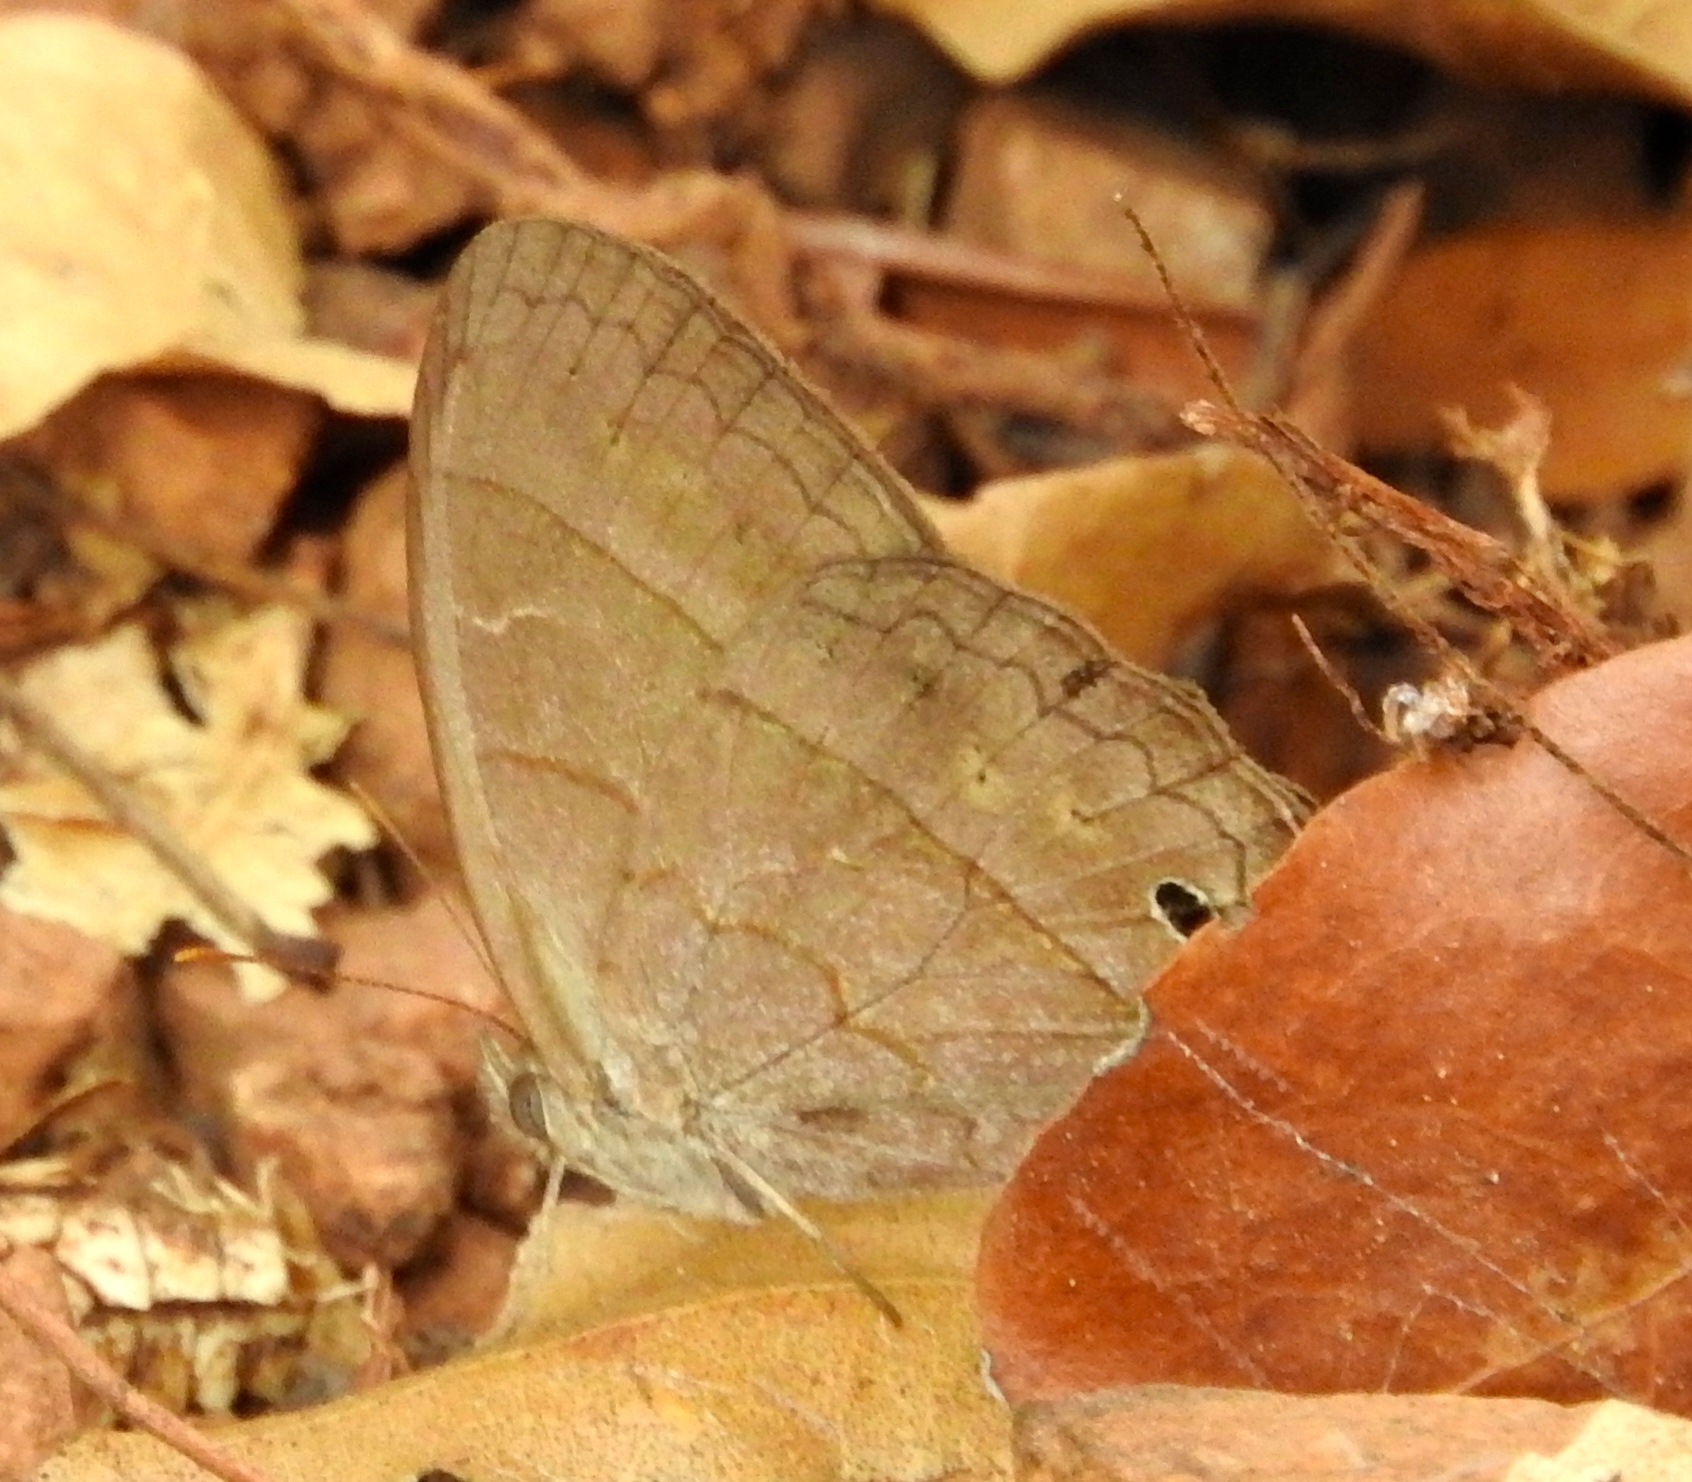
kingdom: Animalia
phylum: Arthropoda
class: Insecta
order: Lepidoptera
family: Nymphalidae
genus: Vareuptychia
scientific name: Vareuptychia similis
